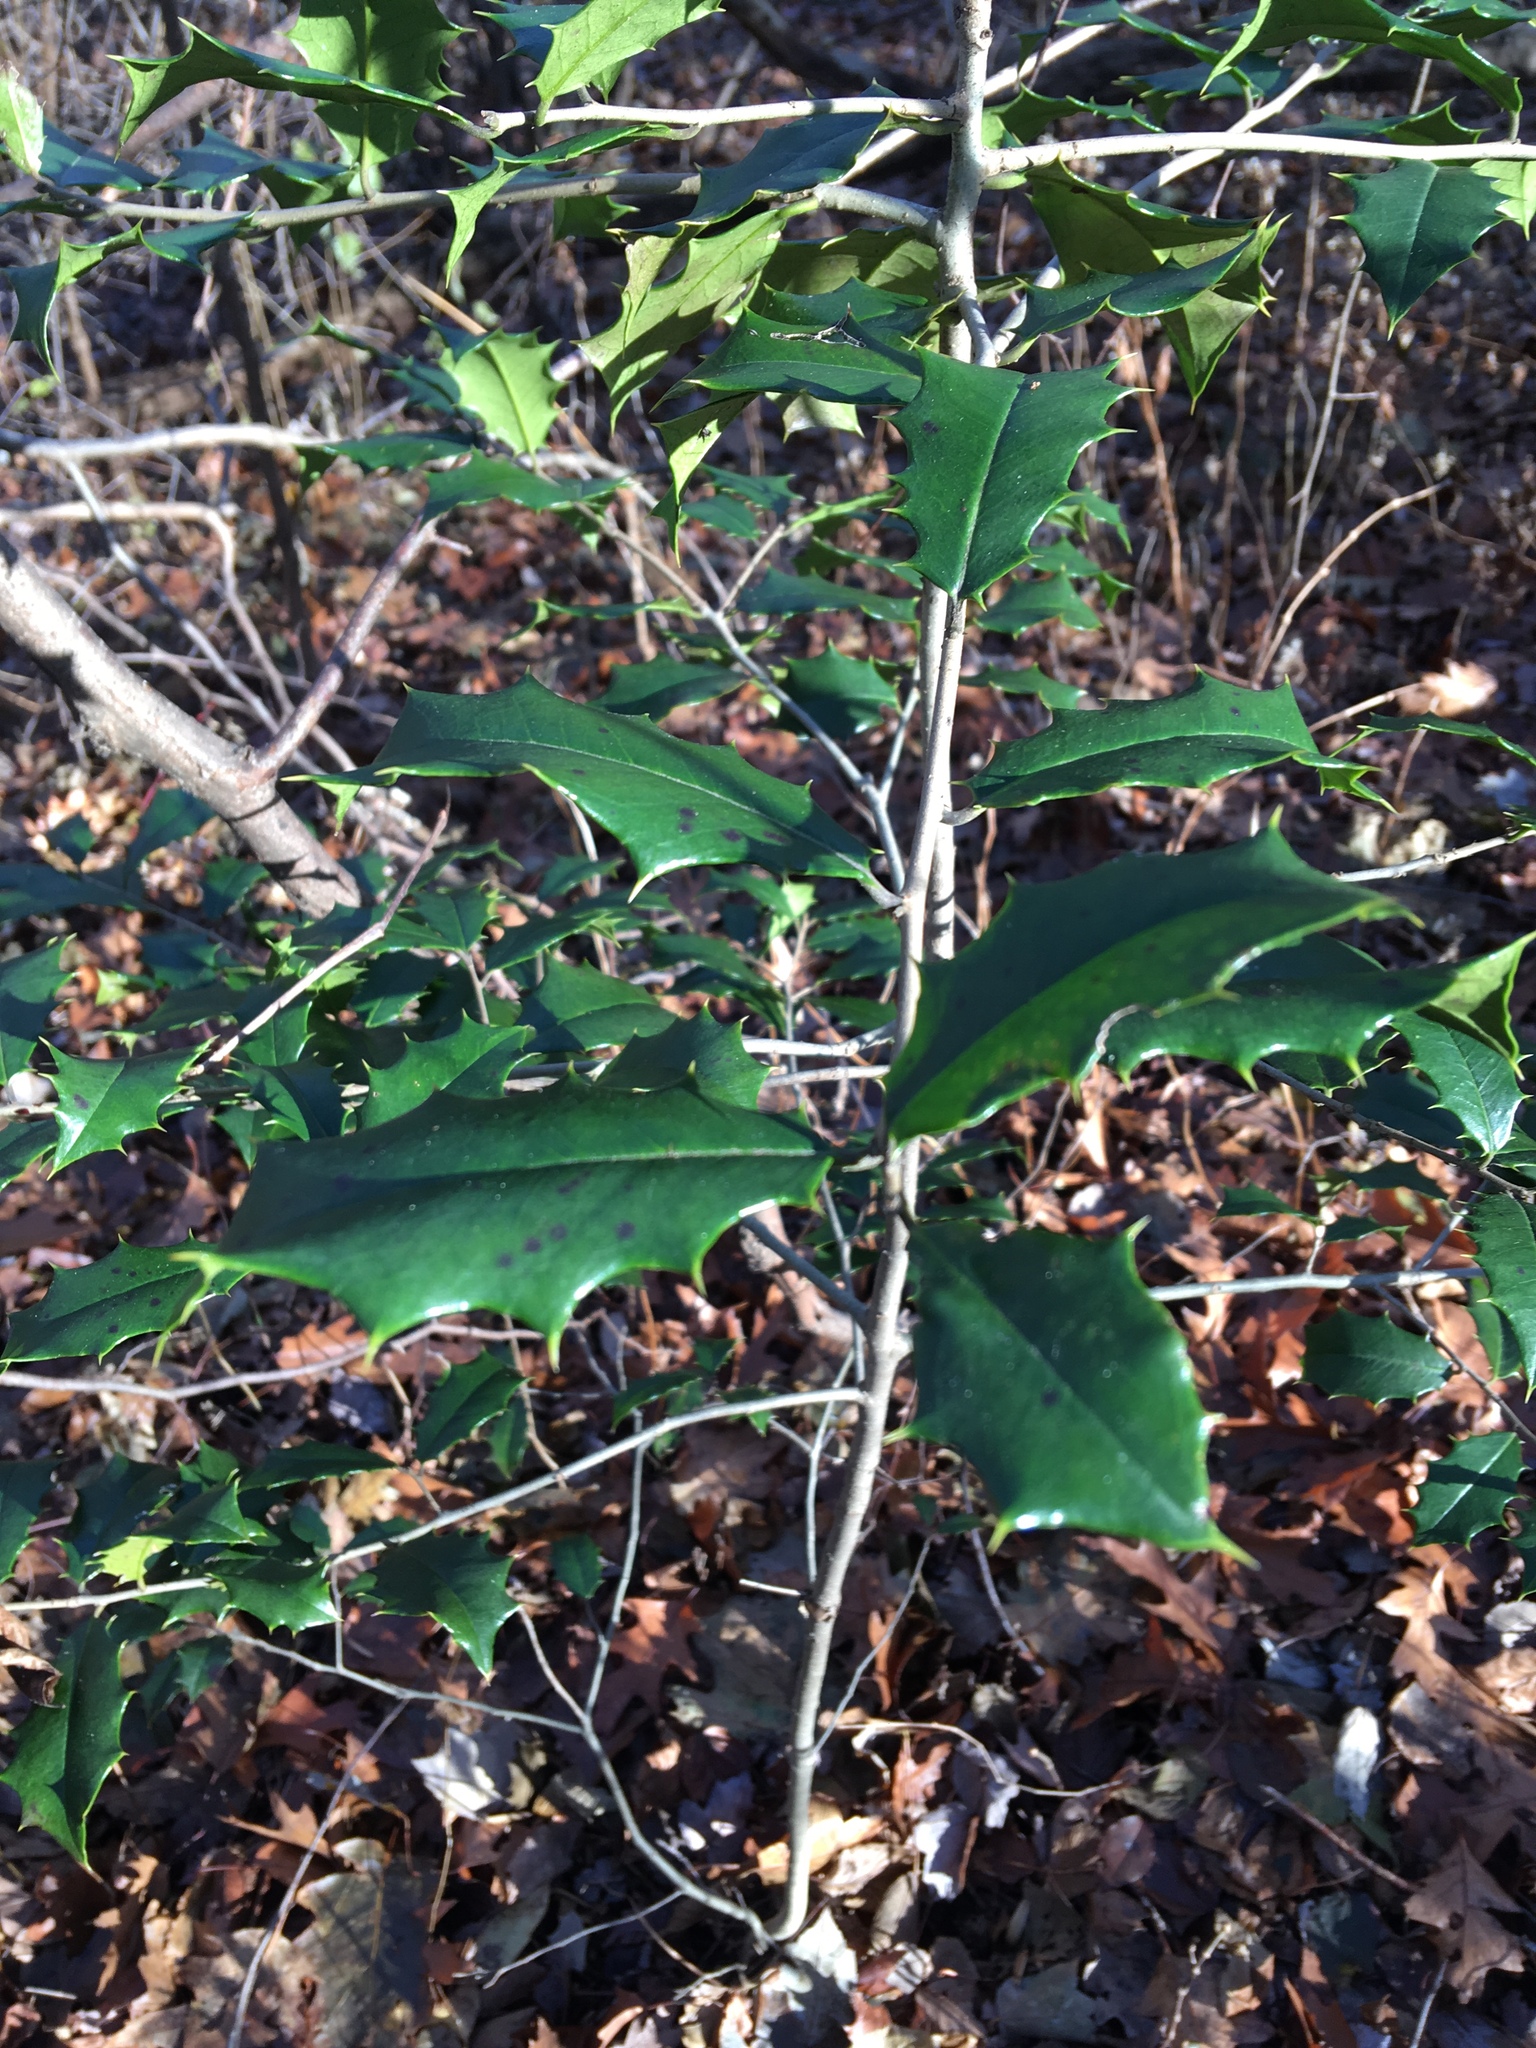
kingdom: Plantae
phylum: Tracheophyta
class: Magnoliopsida
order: Aquifoliales
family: Aquifoliaceae
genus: Ilex
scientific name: Ilex opaca
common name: American holly
